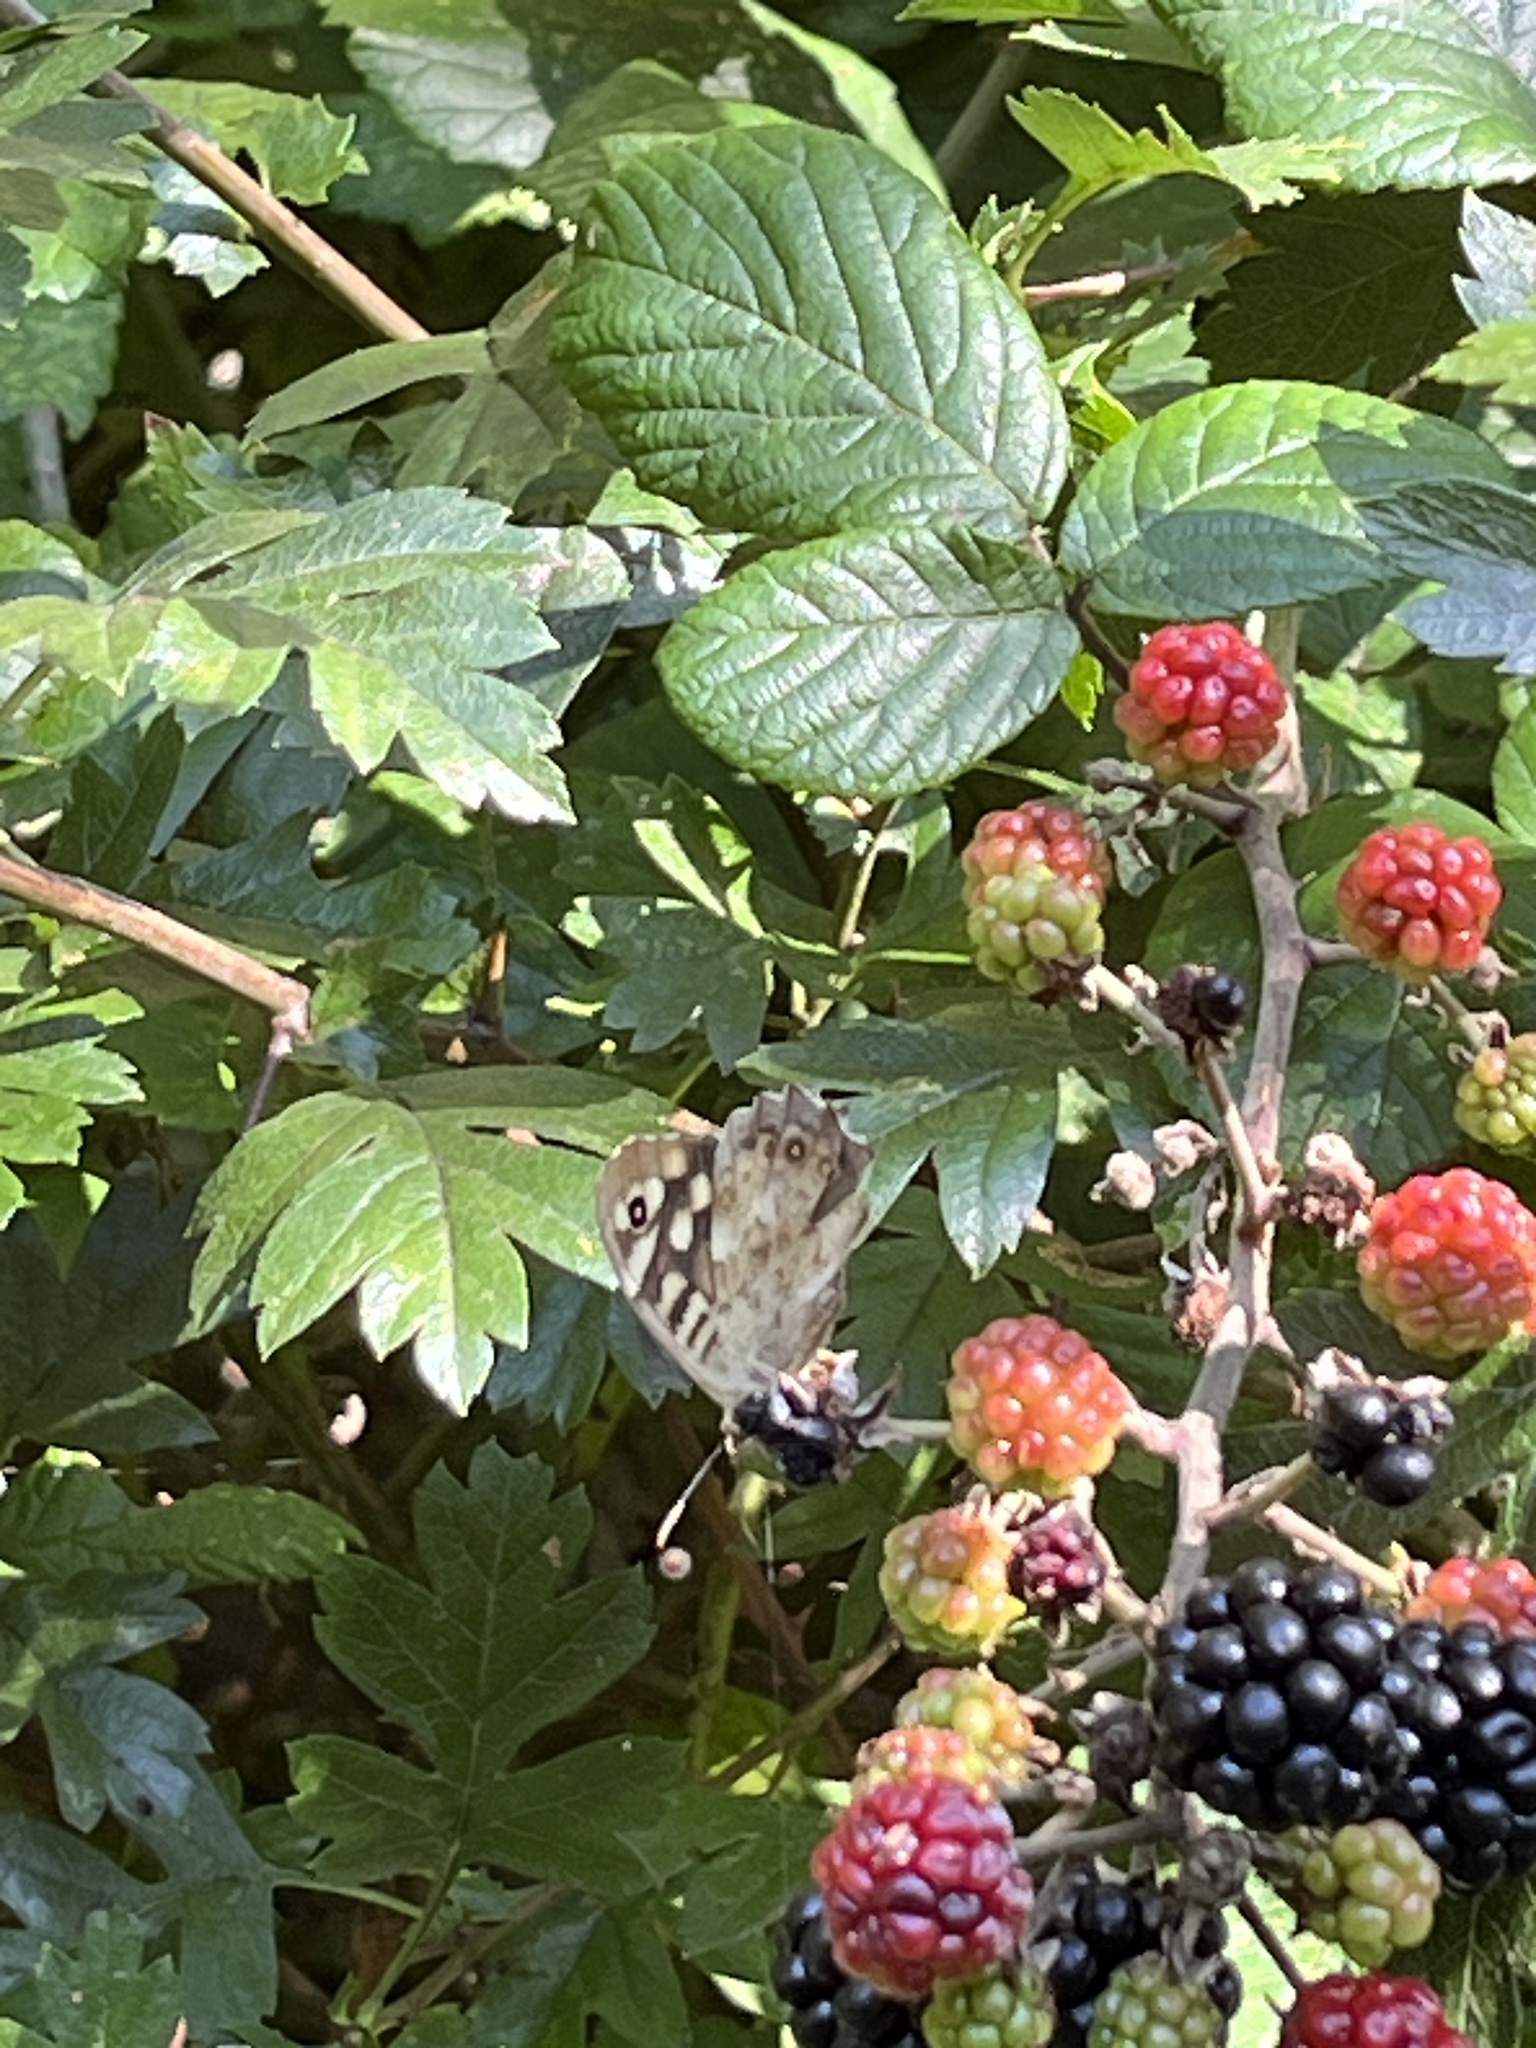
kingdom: Animalia
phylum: Arthropoda
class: Insecta
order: Lepidoptera
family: Nymphalidae
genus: Pararge
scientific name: Pararge aegeria
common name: Speckled wood
